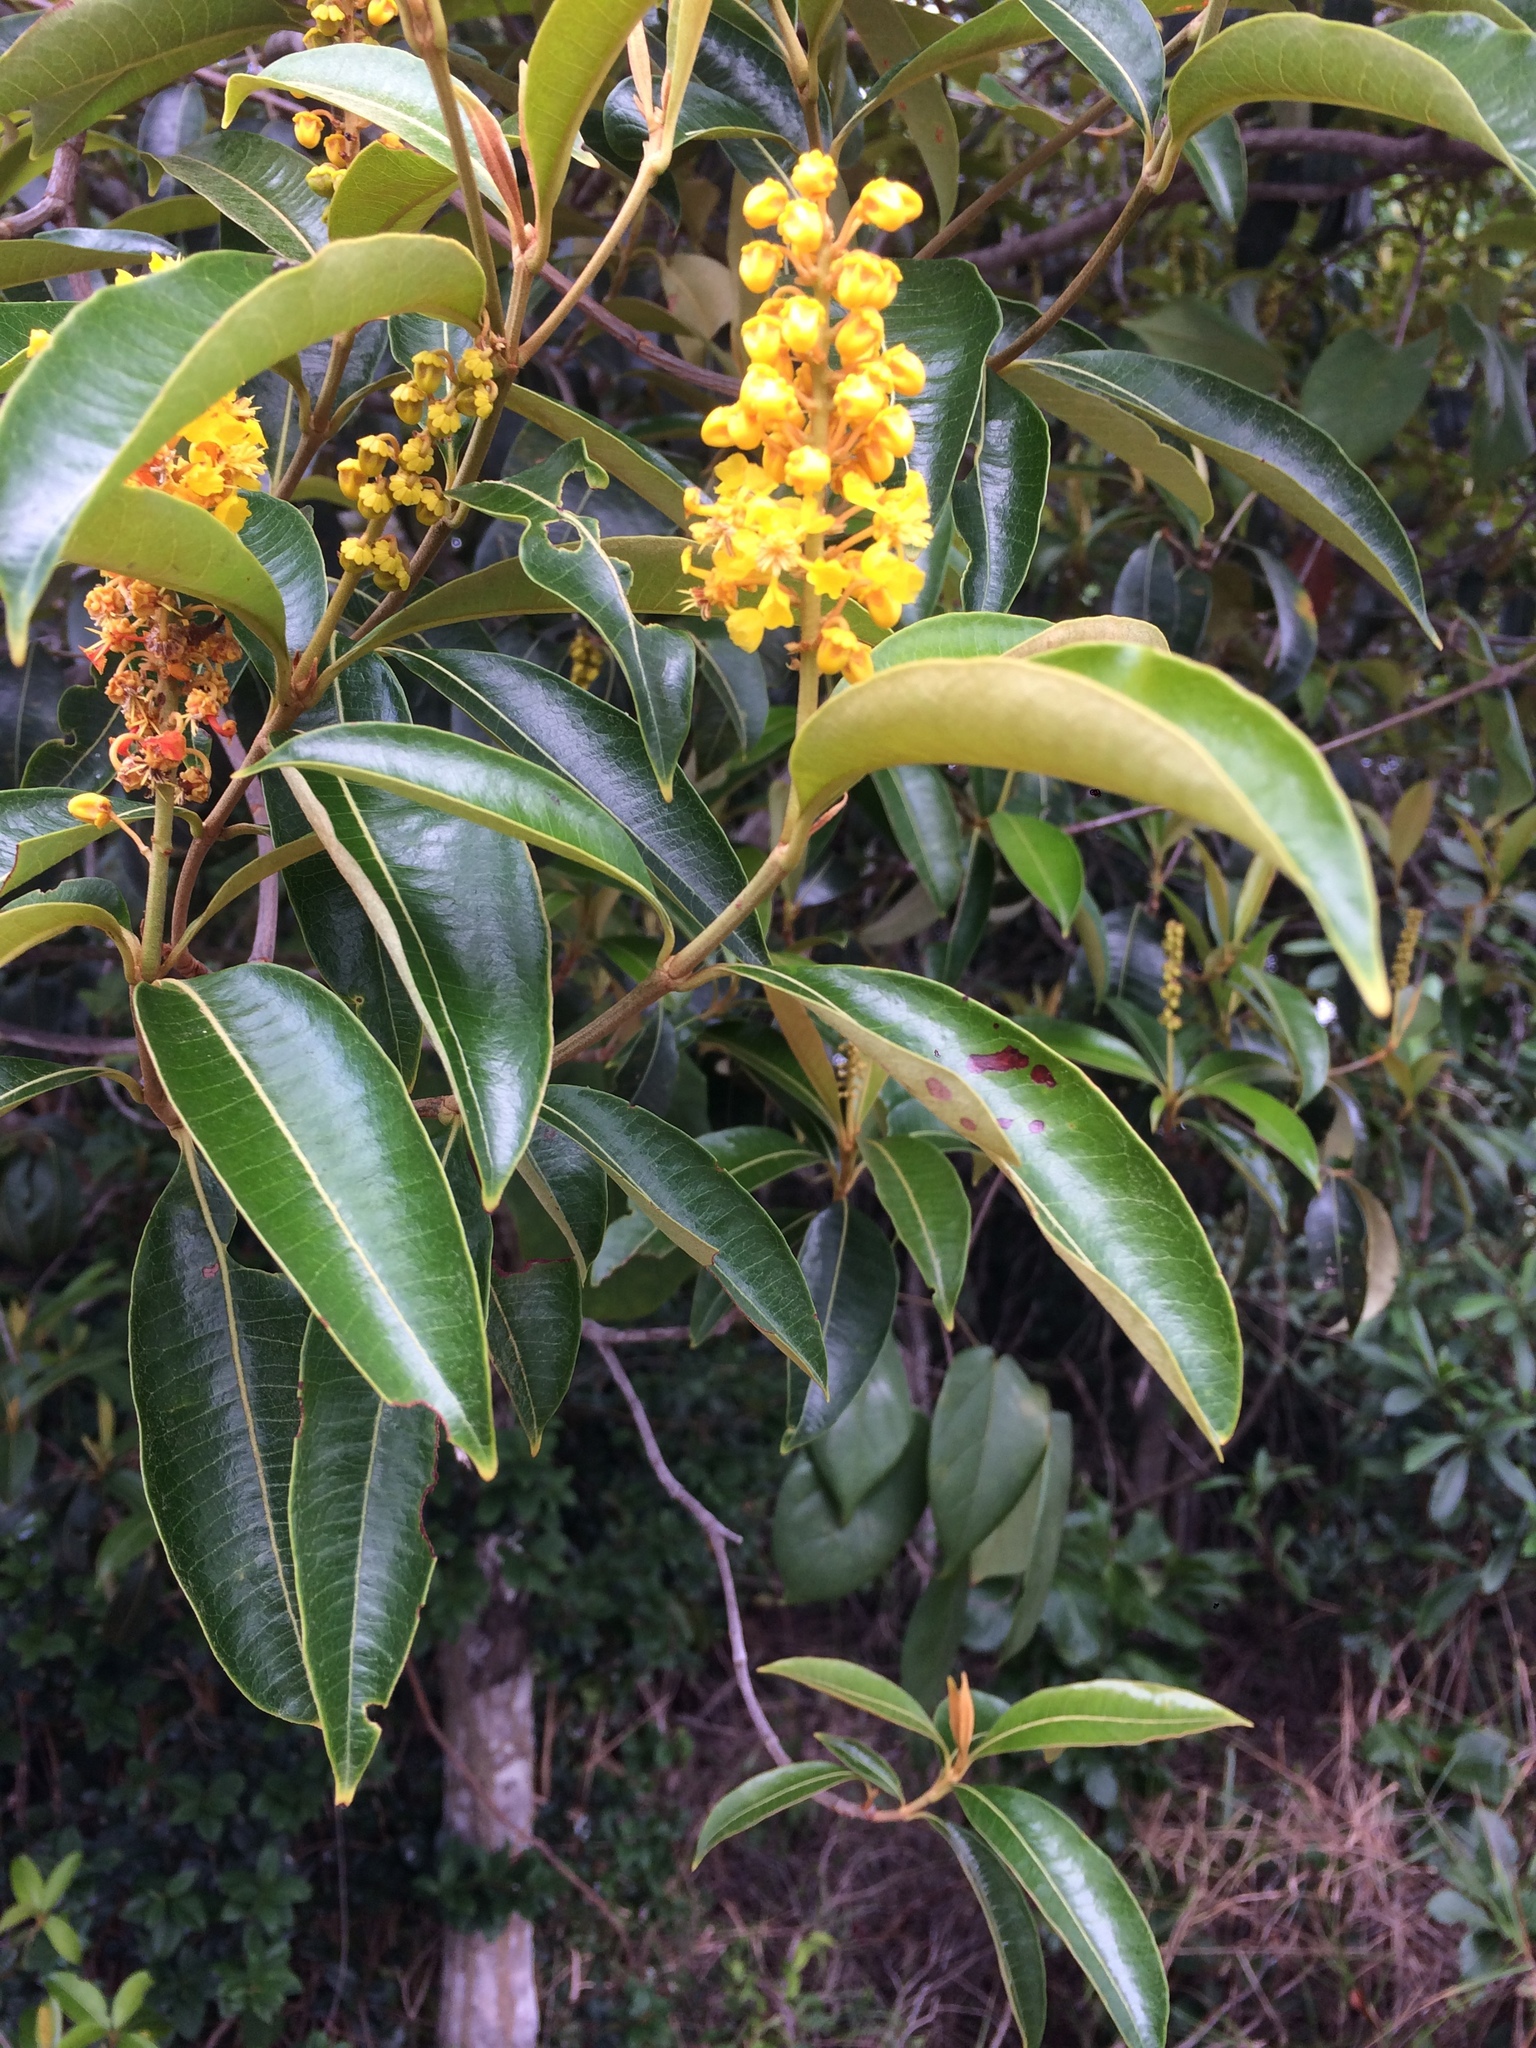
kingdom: Plantae
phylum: Tracheophyta
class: Magnoliopsida
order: Malpighiales
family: Malpighiaceae
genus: Byrsonima
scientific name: Byrsonima sericea
